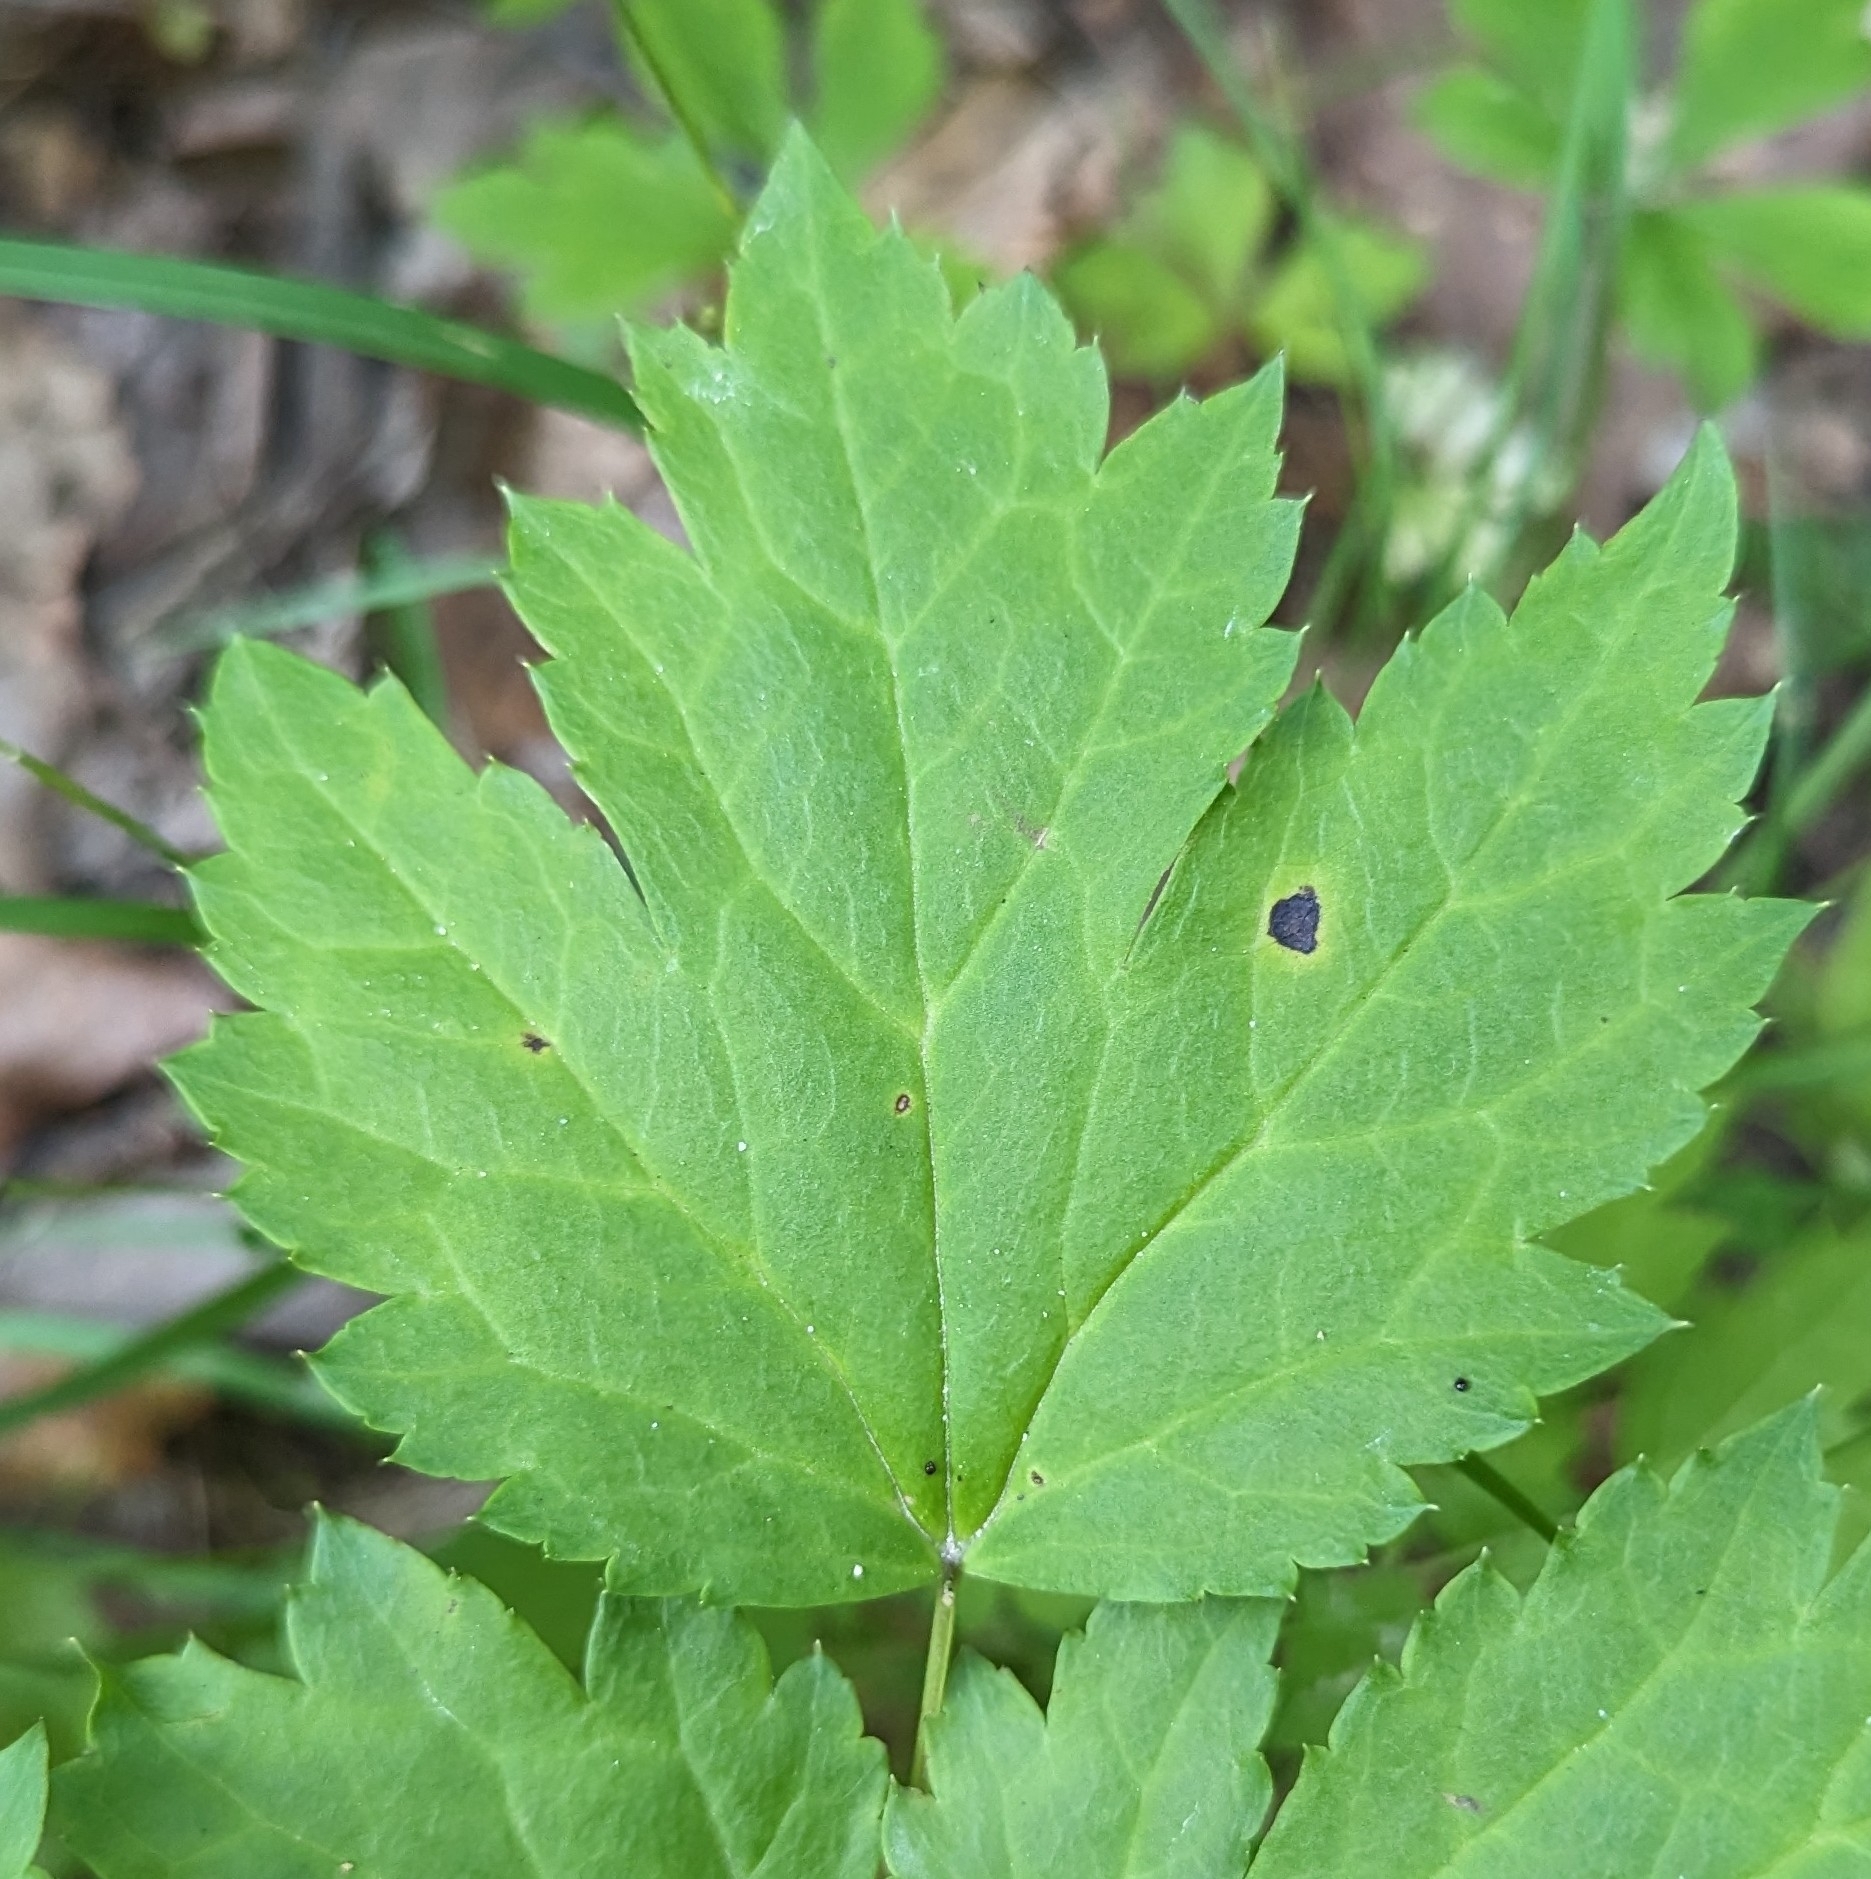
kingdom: Plantae
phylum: Tracheophyta
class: Magnoliopsida
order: Ranunculales
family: Ranunculaceae
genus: Actaea
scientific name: Actaea racemosa
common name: Black cohosh
